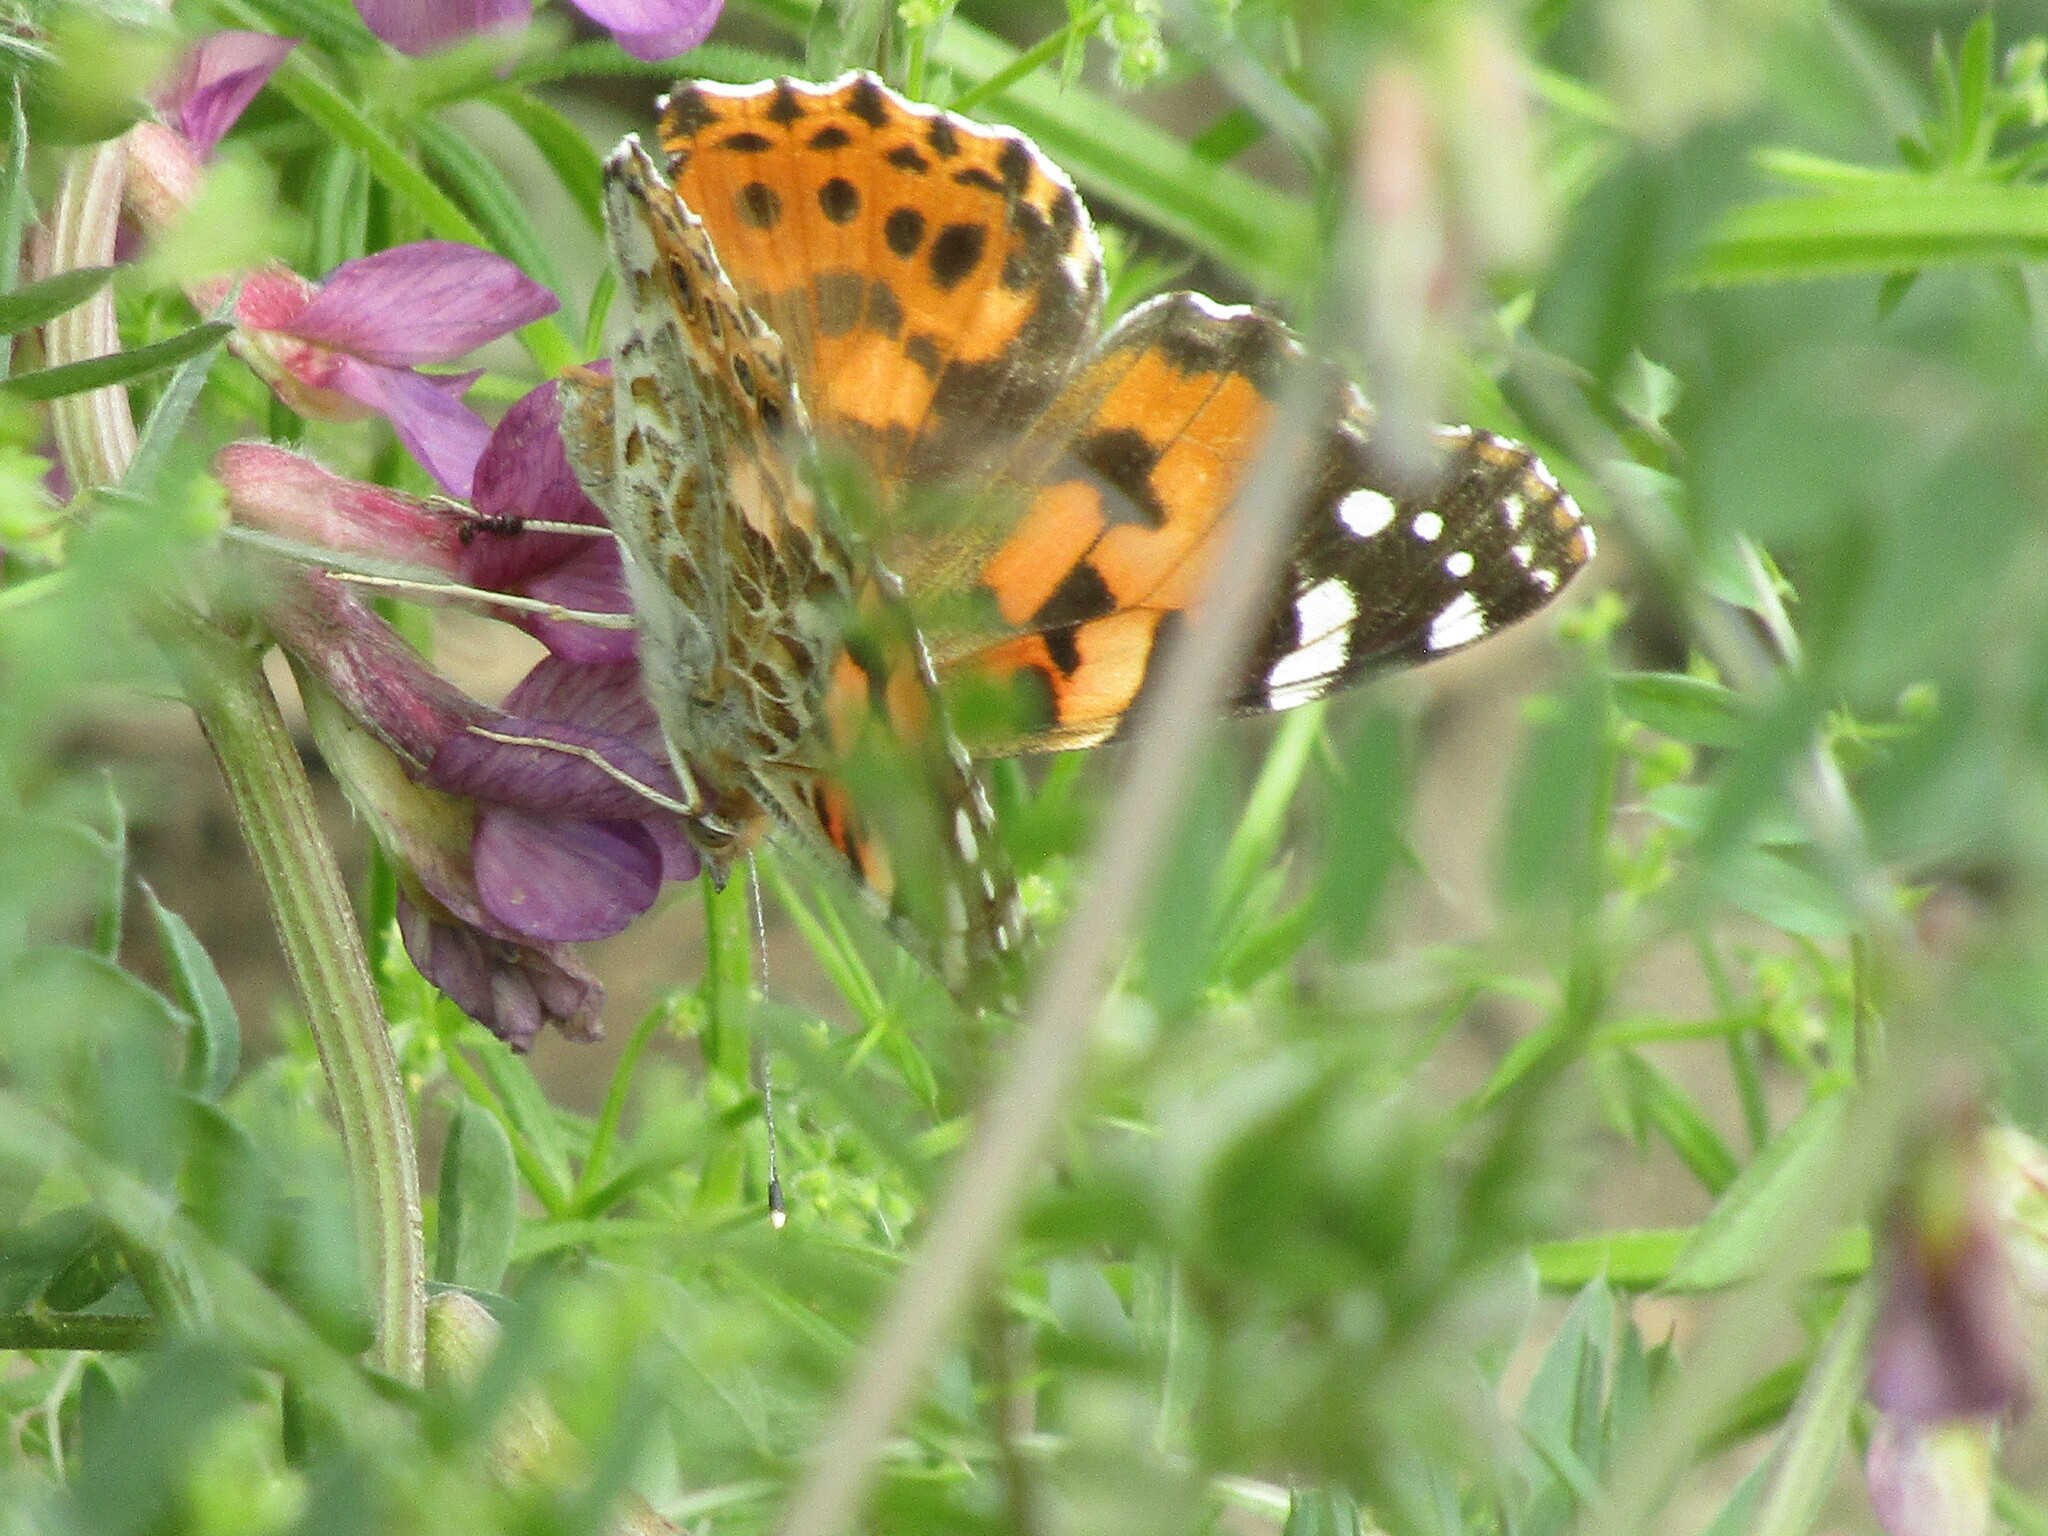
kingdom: Animalia
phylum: Arthropoda
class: Insecta
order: Lepidoptera
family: Nymphalidae
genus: Vanessa
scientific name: Vanessa cardui
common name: Painted lady
